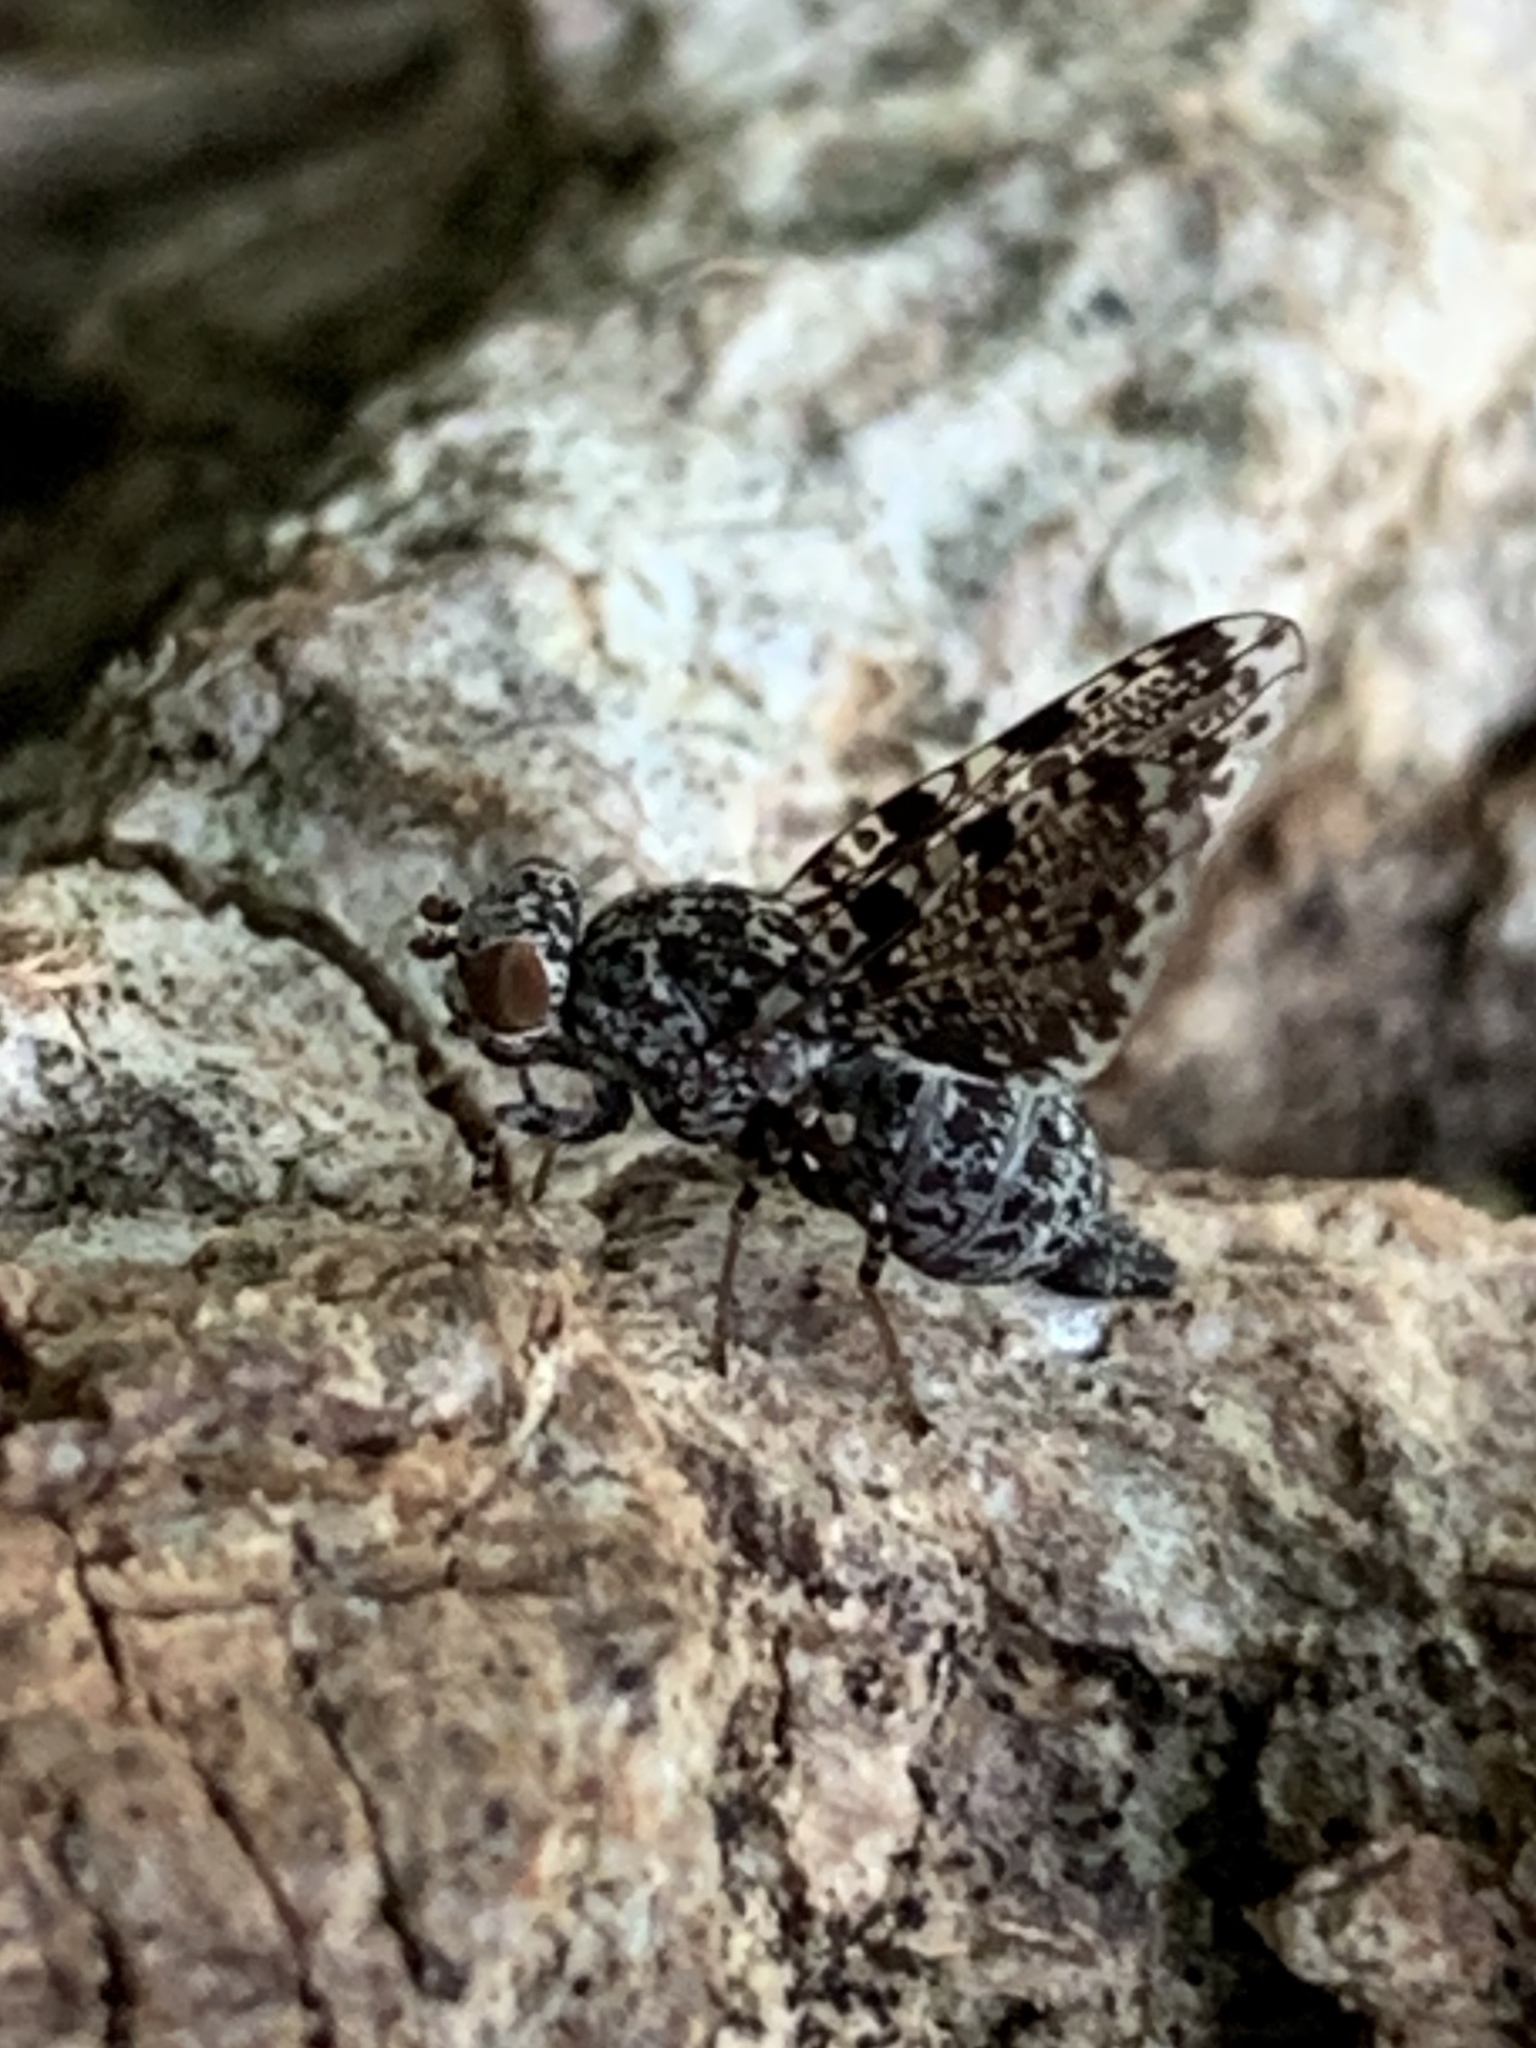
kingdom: Animalia
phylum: Arthropoda
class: Insecta
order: Diptera
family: Ulidiidae
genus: Callopistromyia
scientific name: Callopistromyia annulipes
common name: Peacock fly
